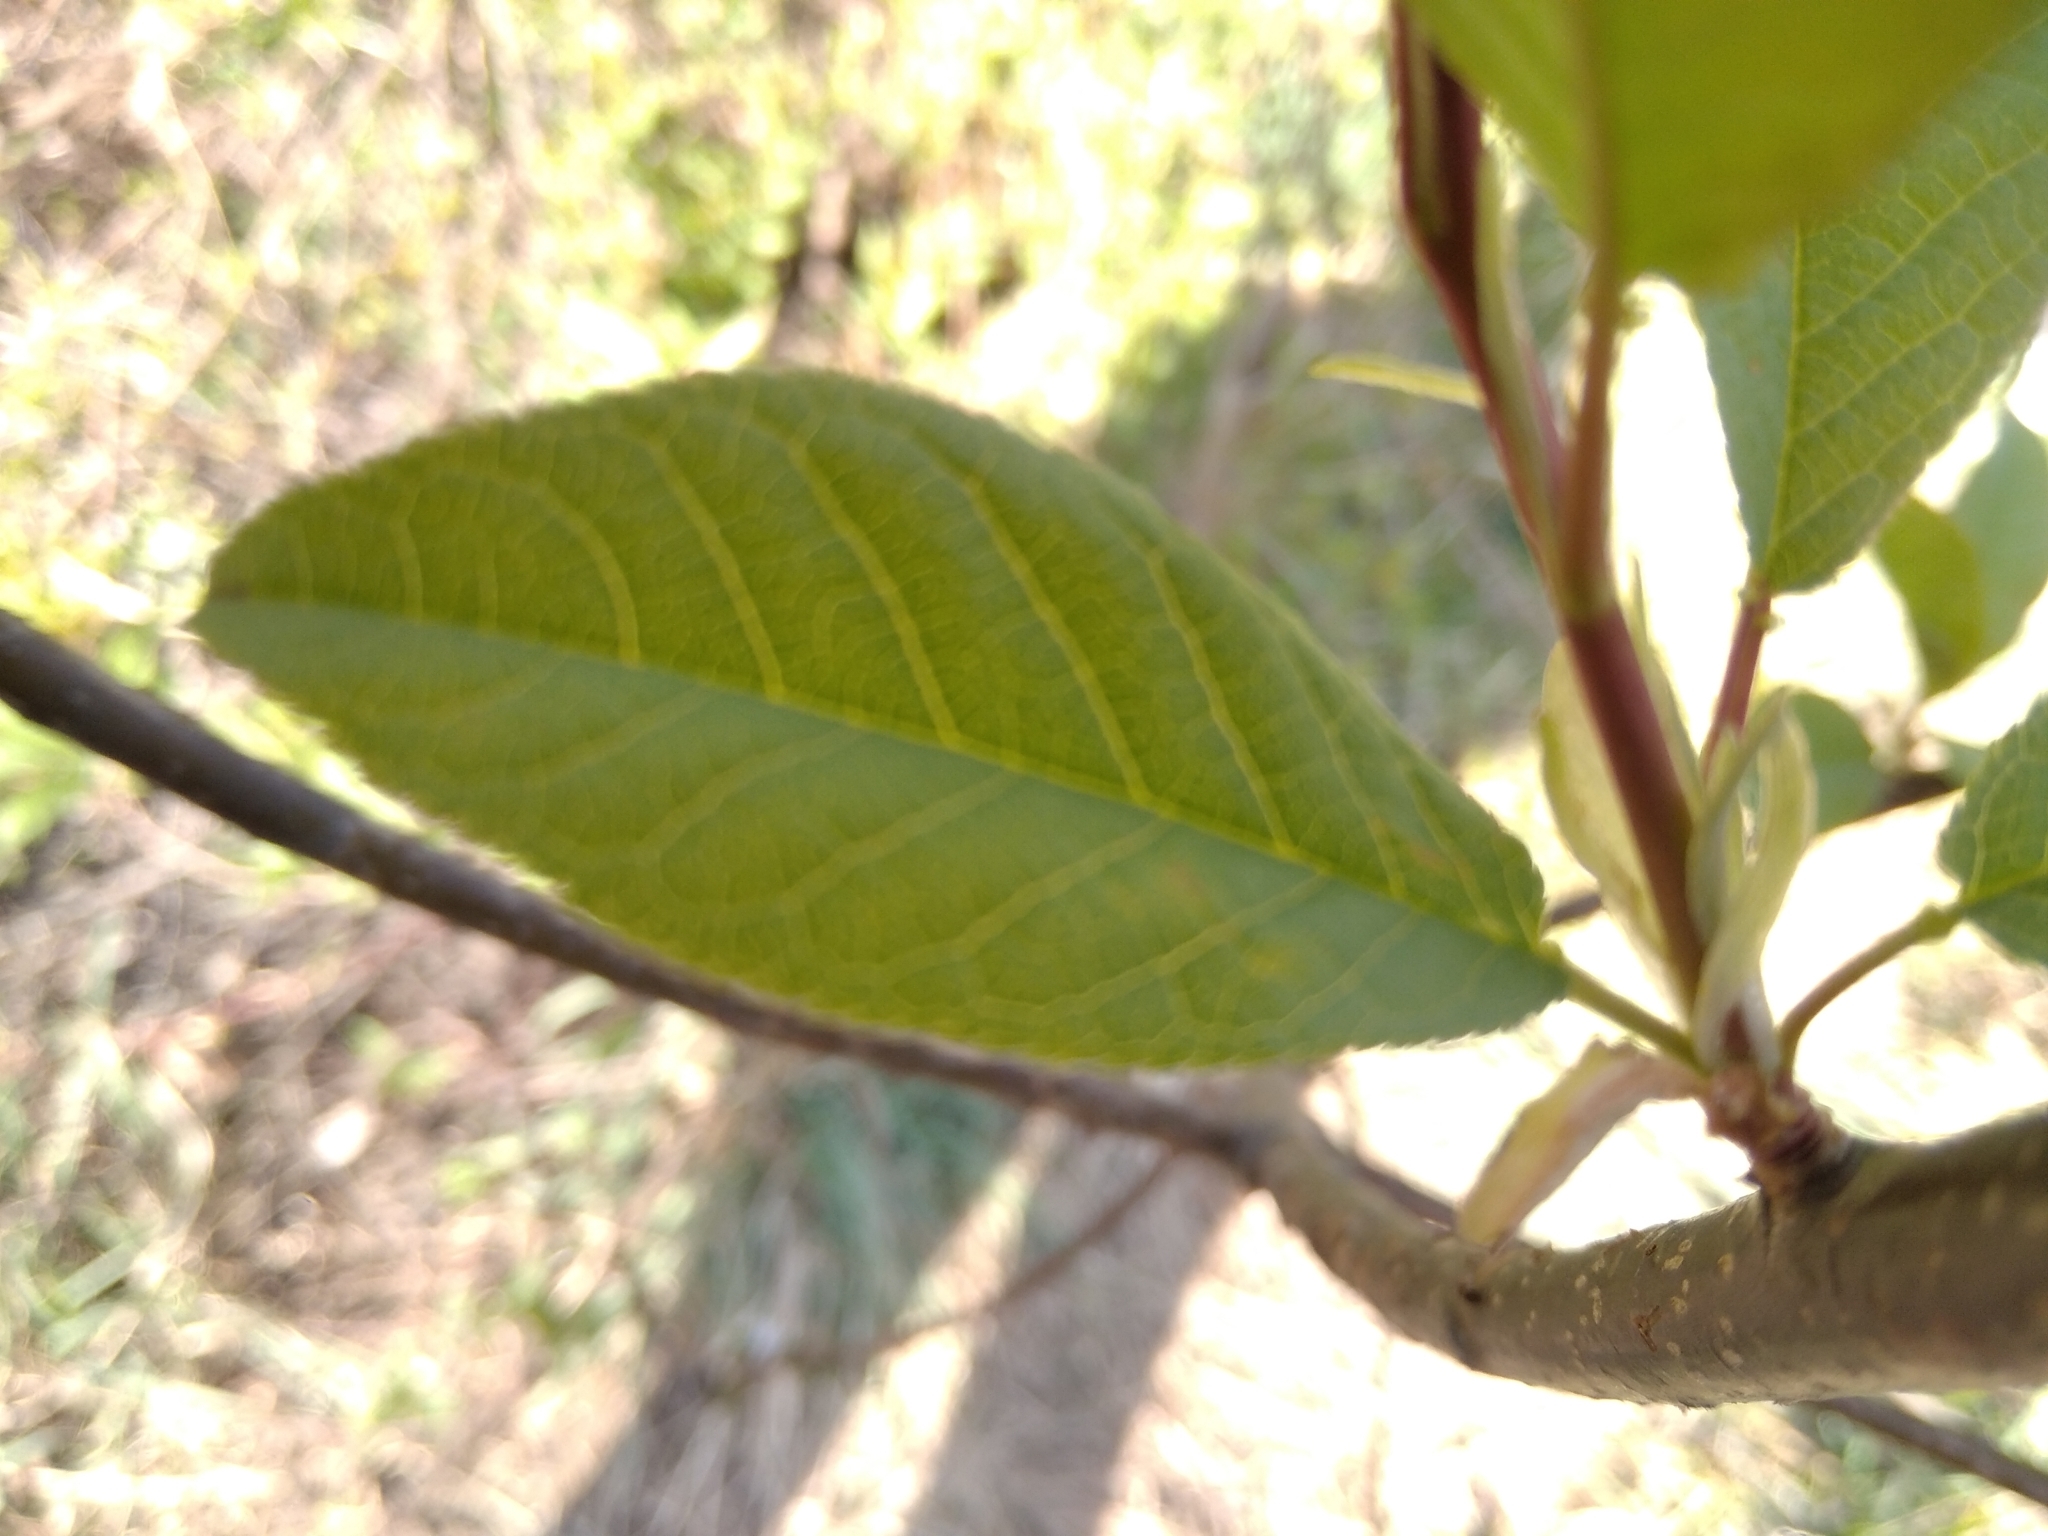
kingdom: Plantae
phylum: Tracheophyta
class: Magnoliopsida
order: Rosales
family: Rosaceae
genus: Prunus
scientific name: Prunus padus
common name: Bird cherry
